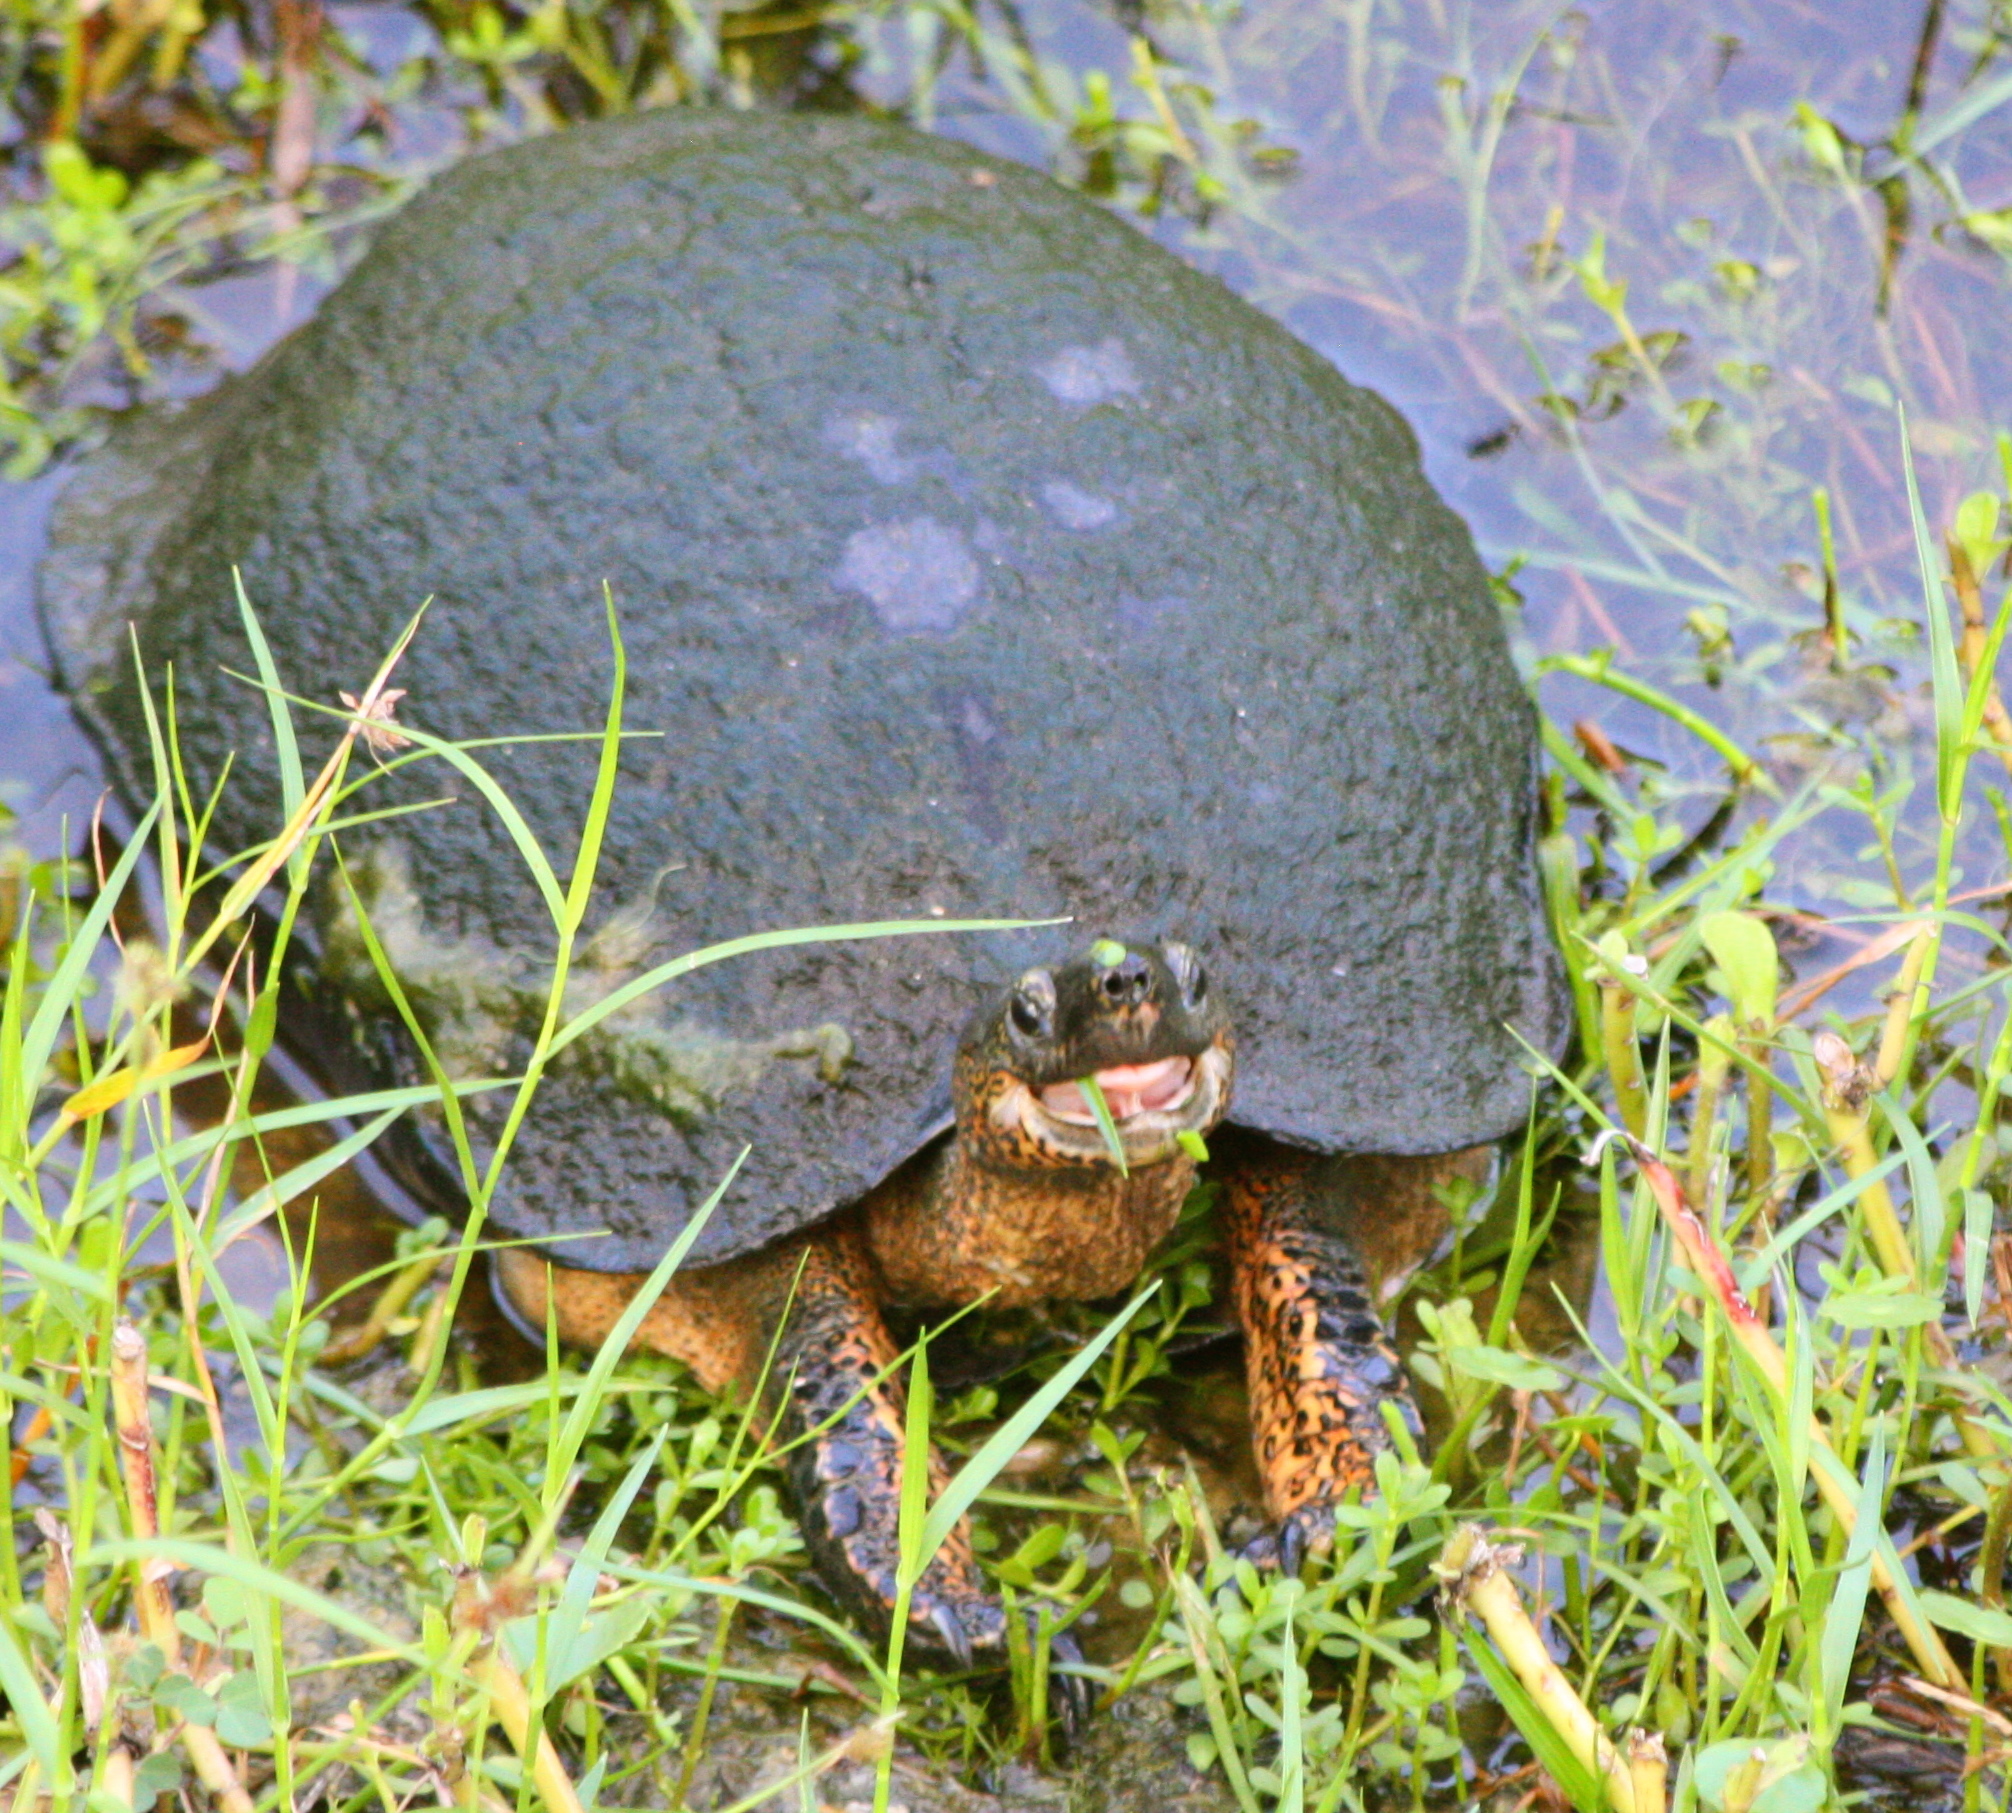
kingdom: Animalia
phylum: Chordata
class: Testudines
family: Geoemydidae
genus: Rhinoclemmys
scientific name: Rhinoclemmys funerea
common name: Black wood turtle
